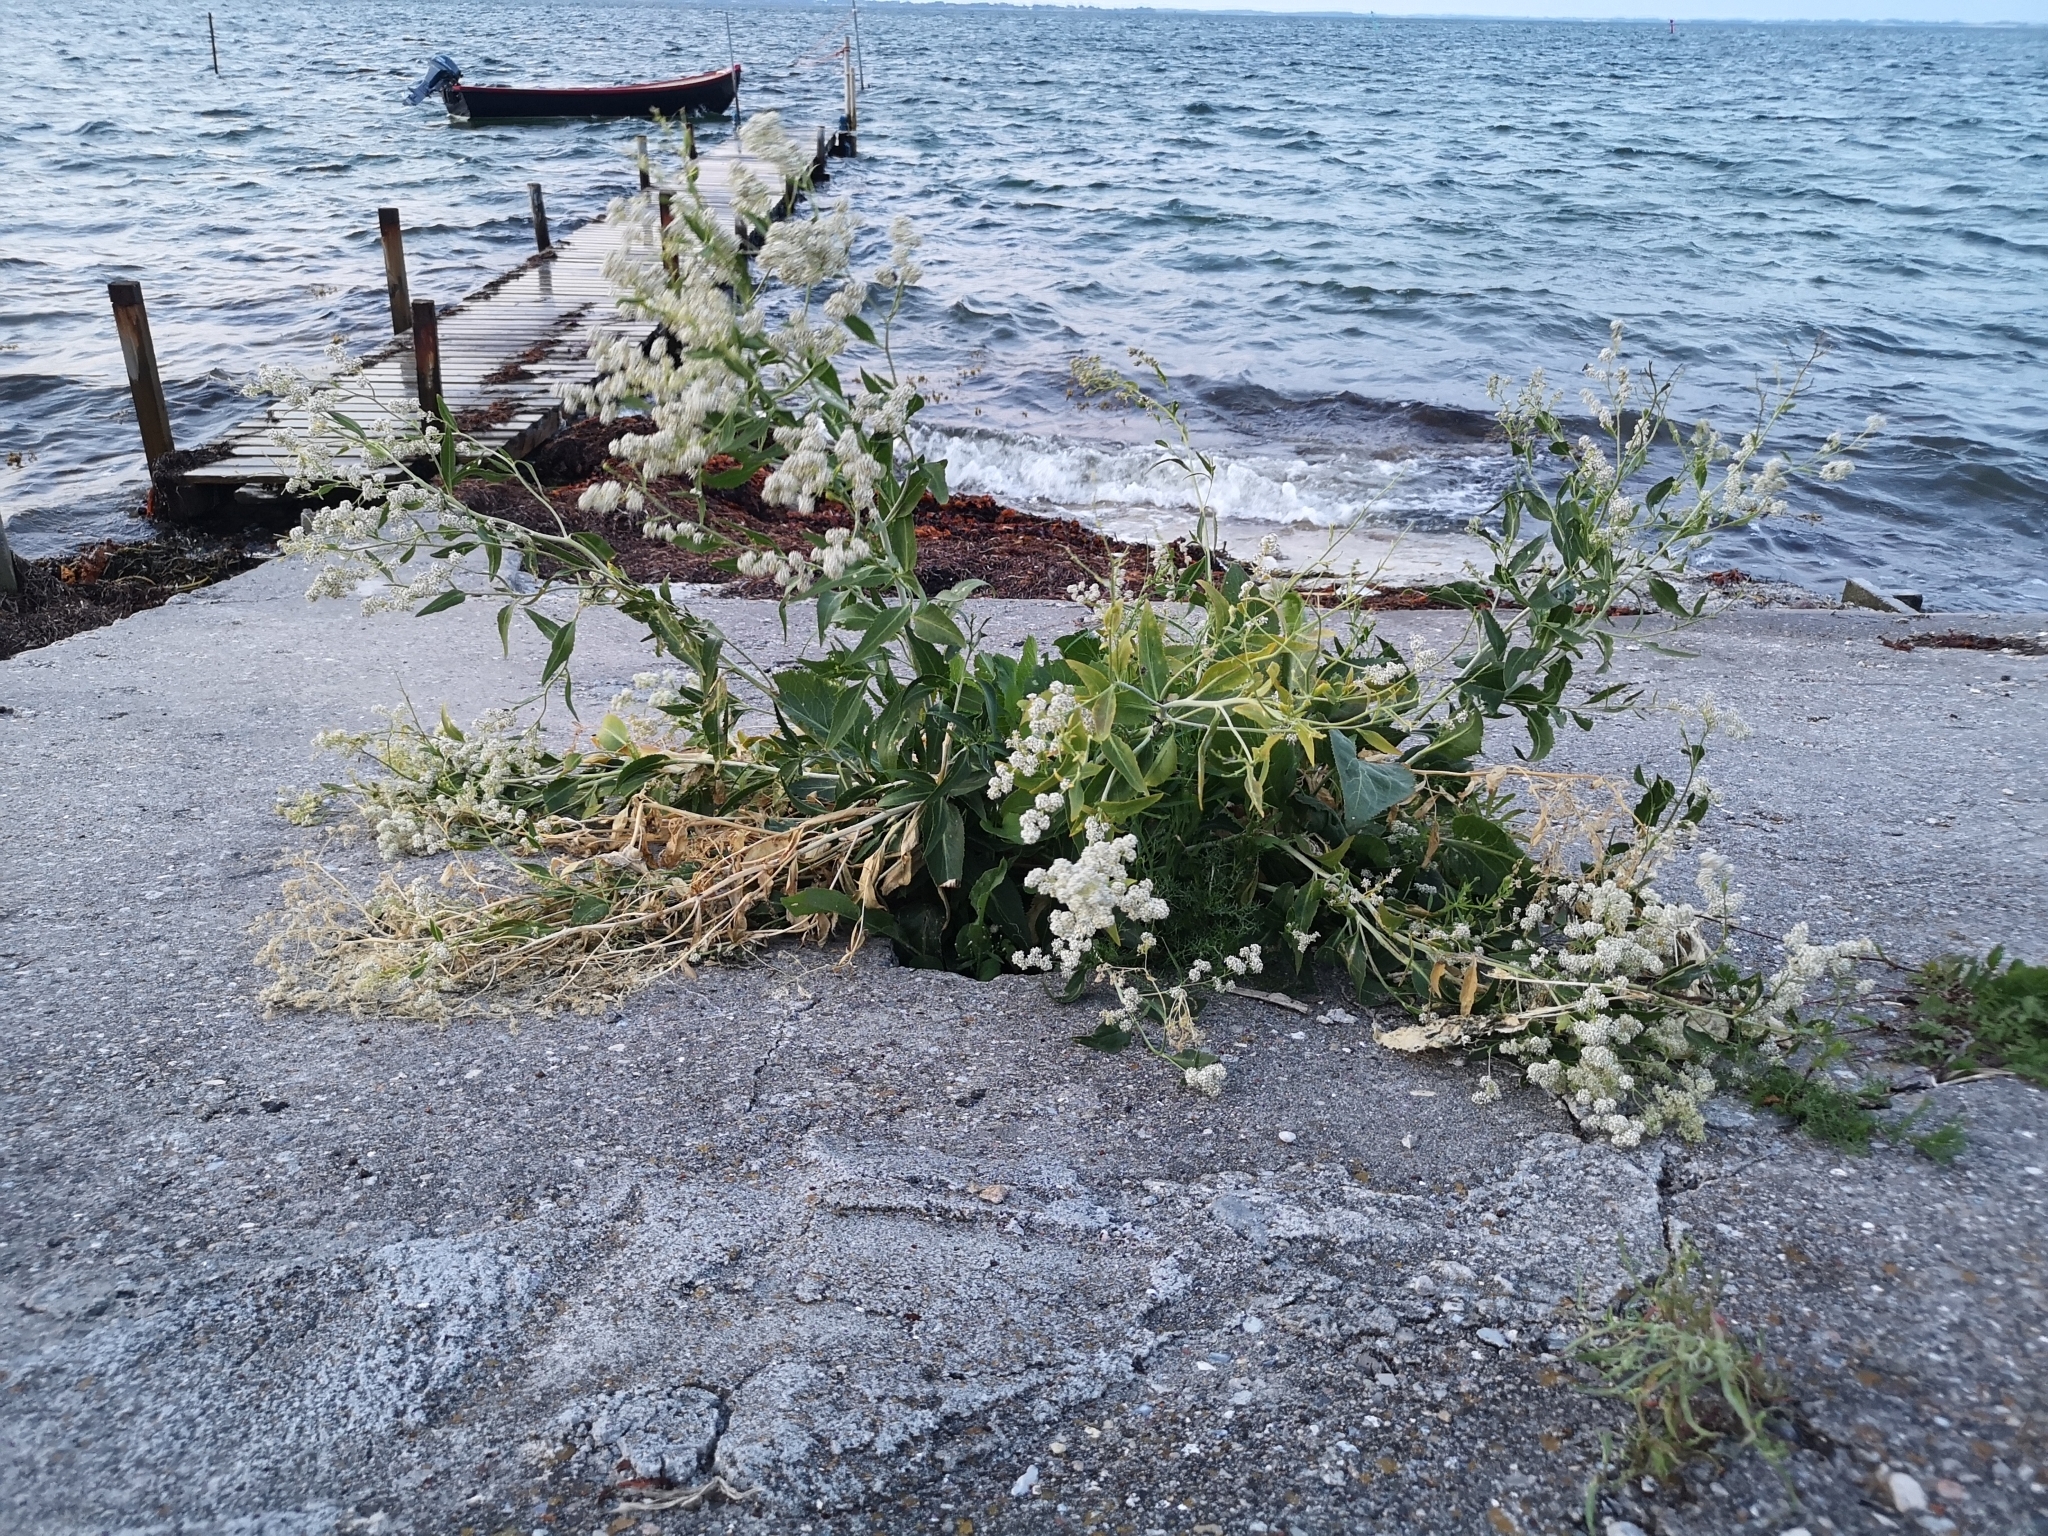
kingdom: Plantae
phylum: Tracheophyta
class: Magnoliopsida
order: Brassicales
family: Brassicaceae
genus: Lepidium
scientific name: Lepidium latifolium
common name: Dittander
